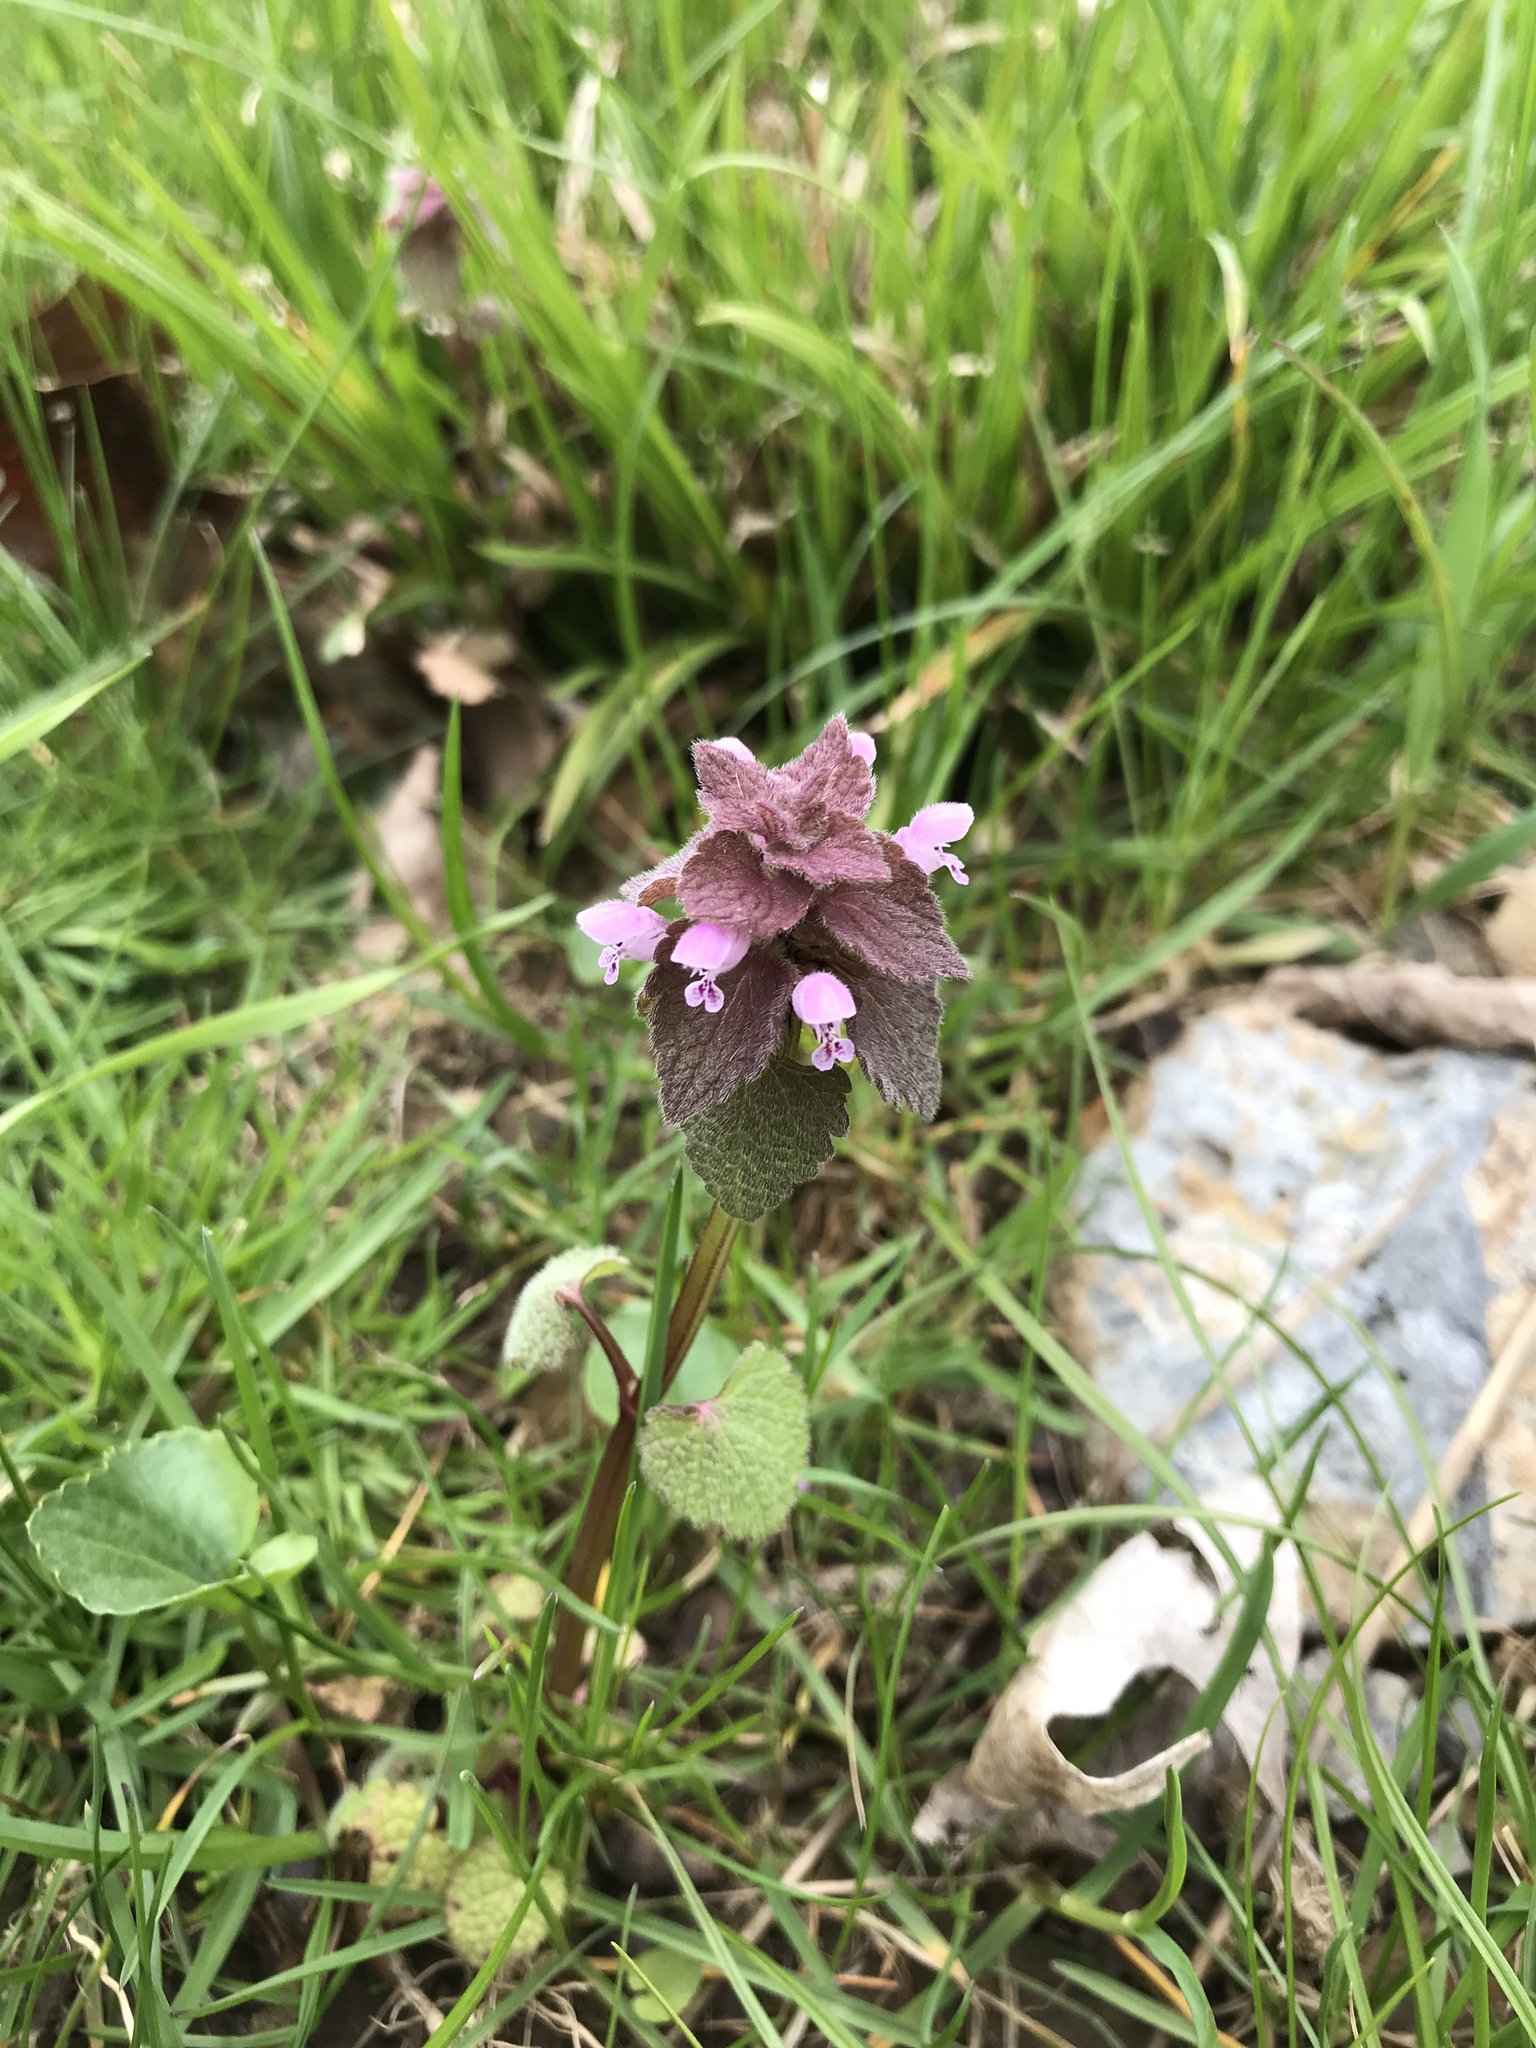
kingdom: Plantae
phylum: Tracheophyta
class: Magnoliopsida
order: Lamiales
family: Lamiaceae
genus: Lamium
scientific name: Lamium purpureum
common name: Red dead-nettle
